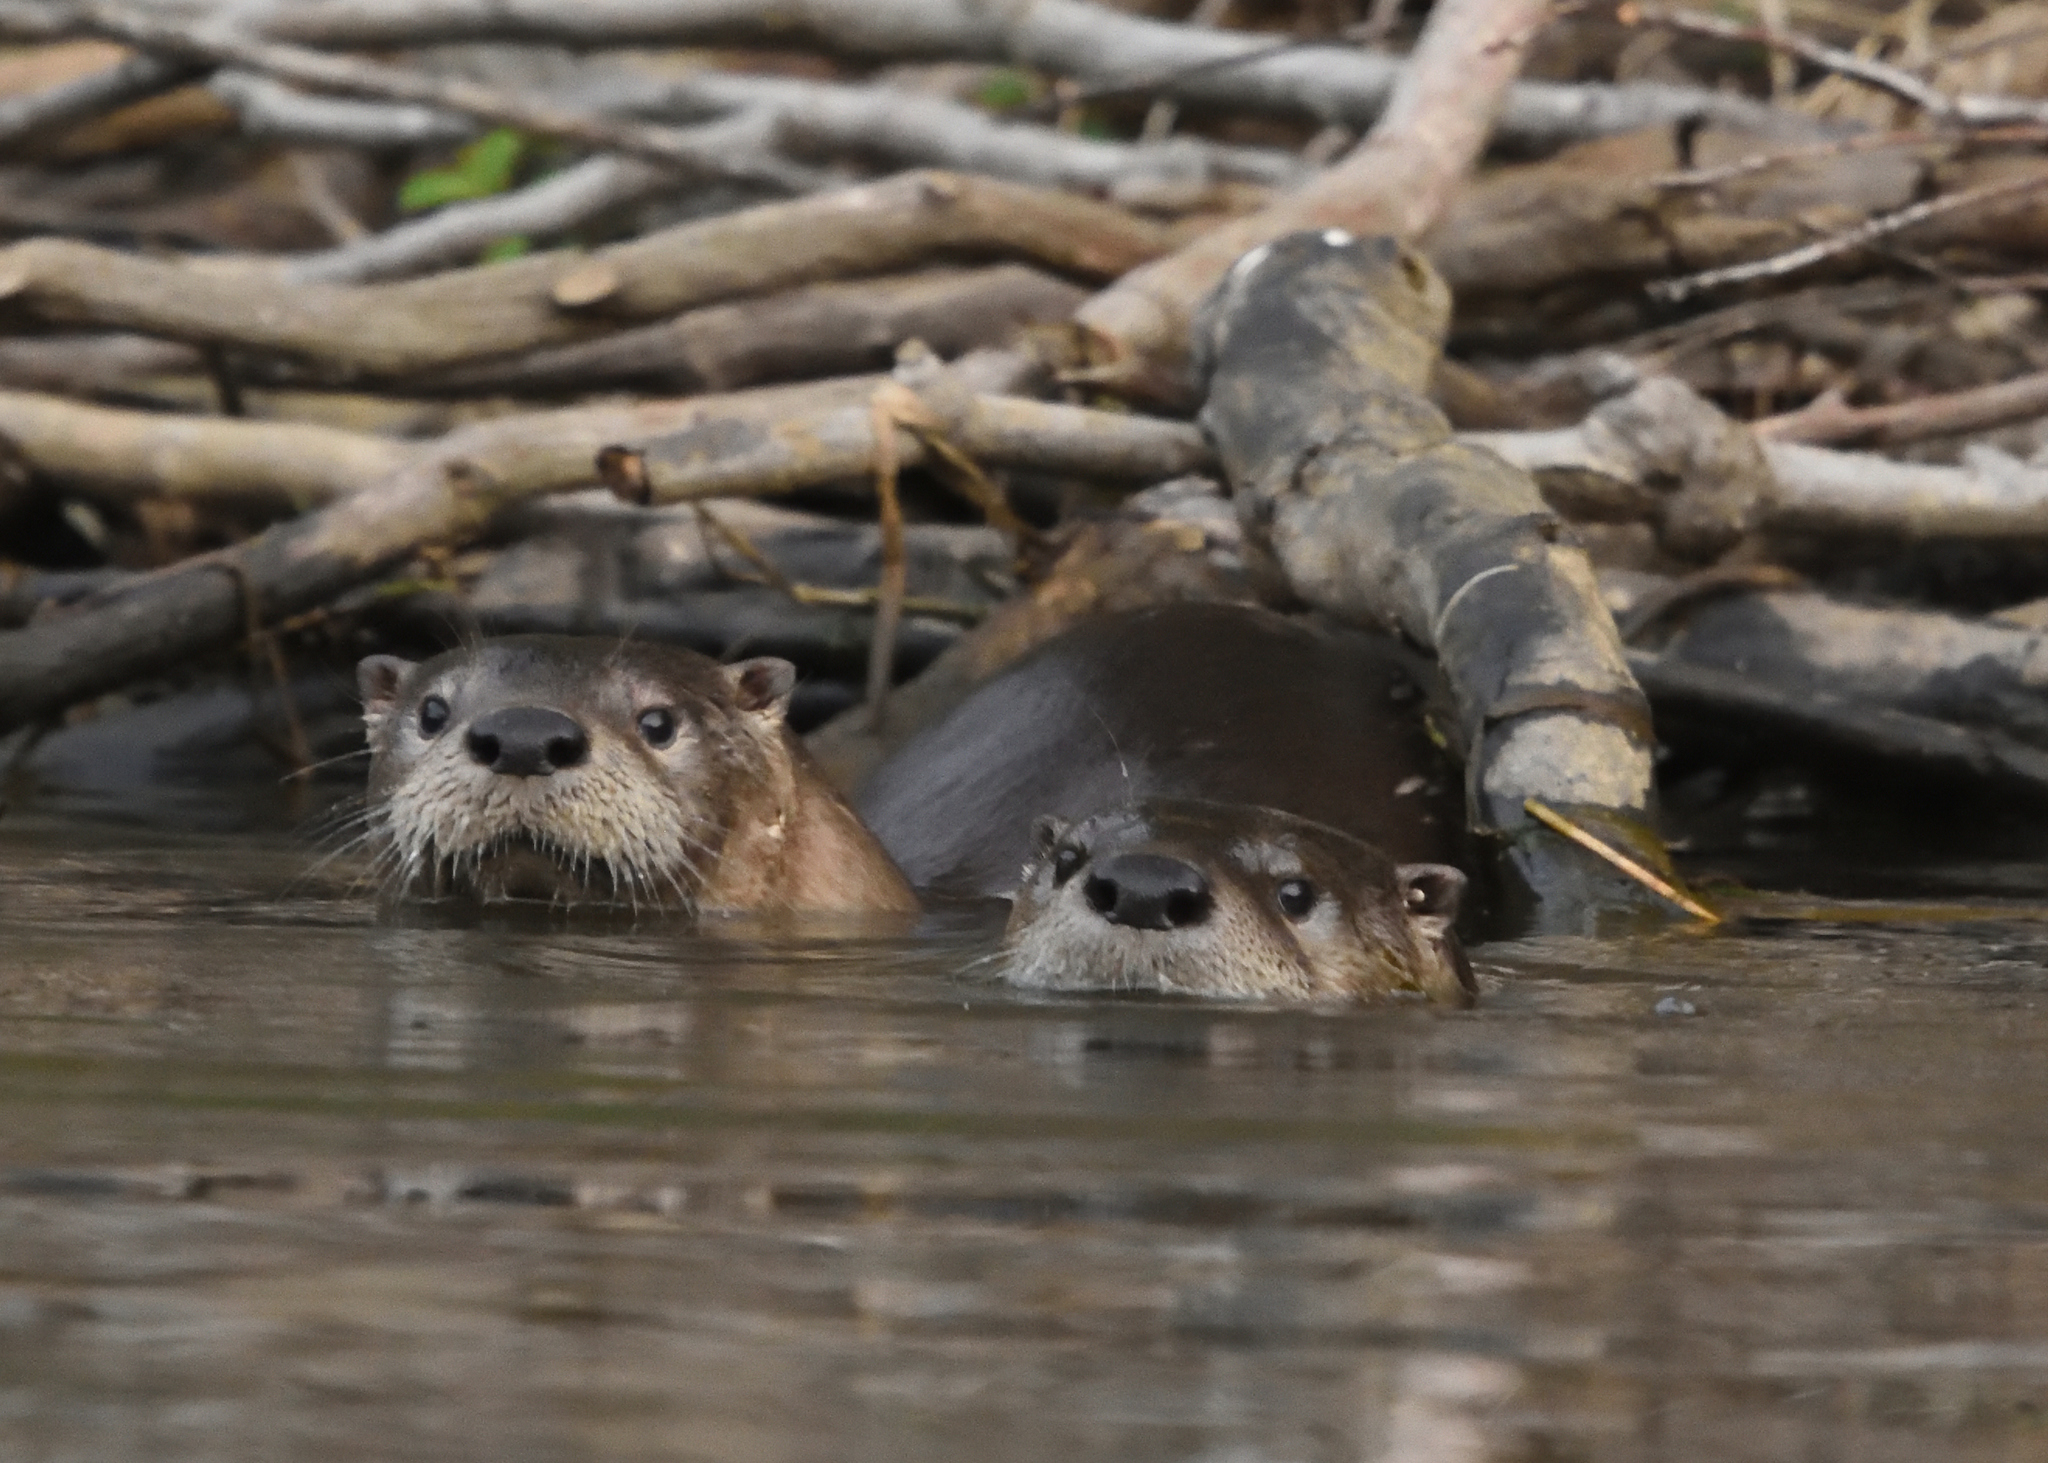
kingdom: Animalia
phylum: Chordata
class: Mammalia
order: Carnivora
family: Mustelidae
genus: Lontra
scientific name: Lontra canadensis
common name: North american river otter
